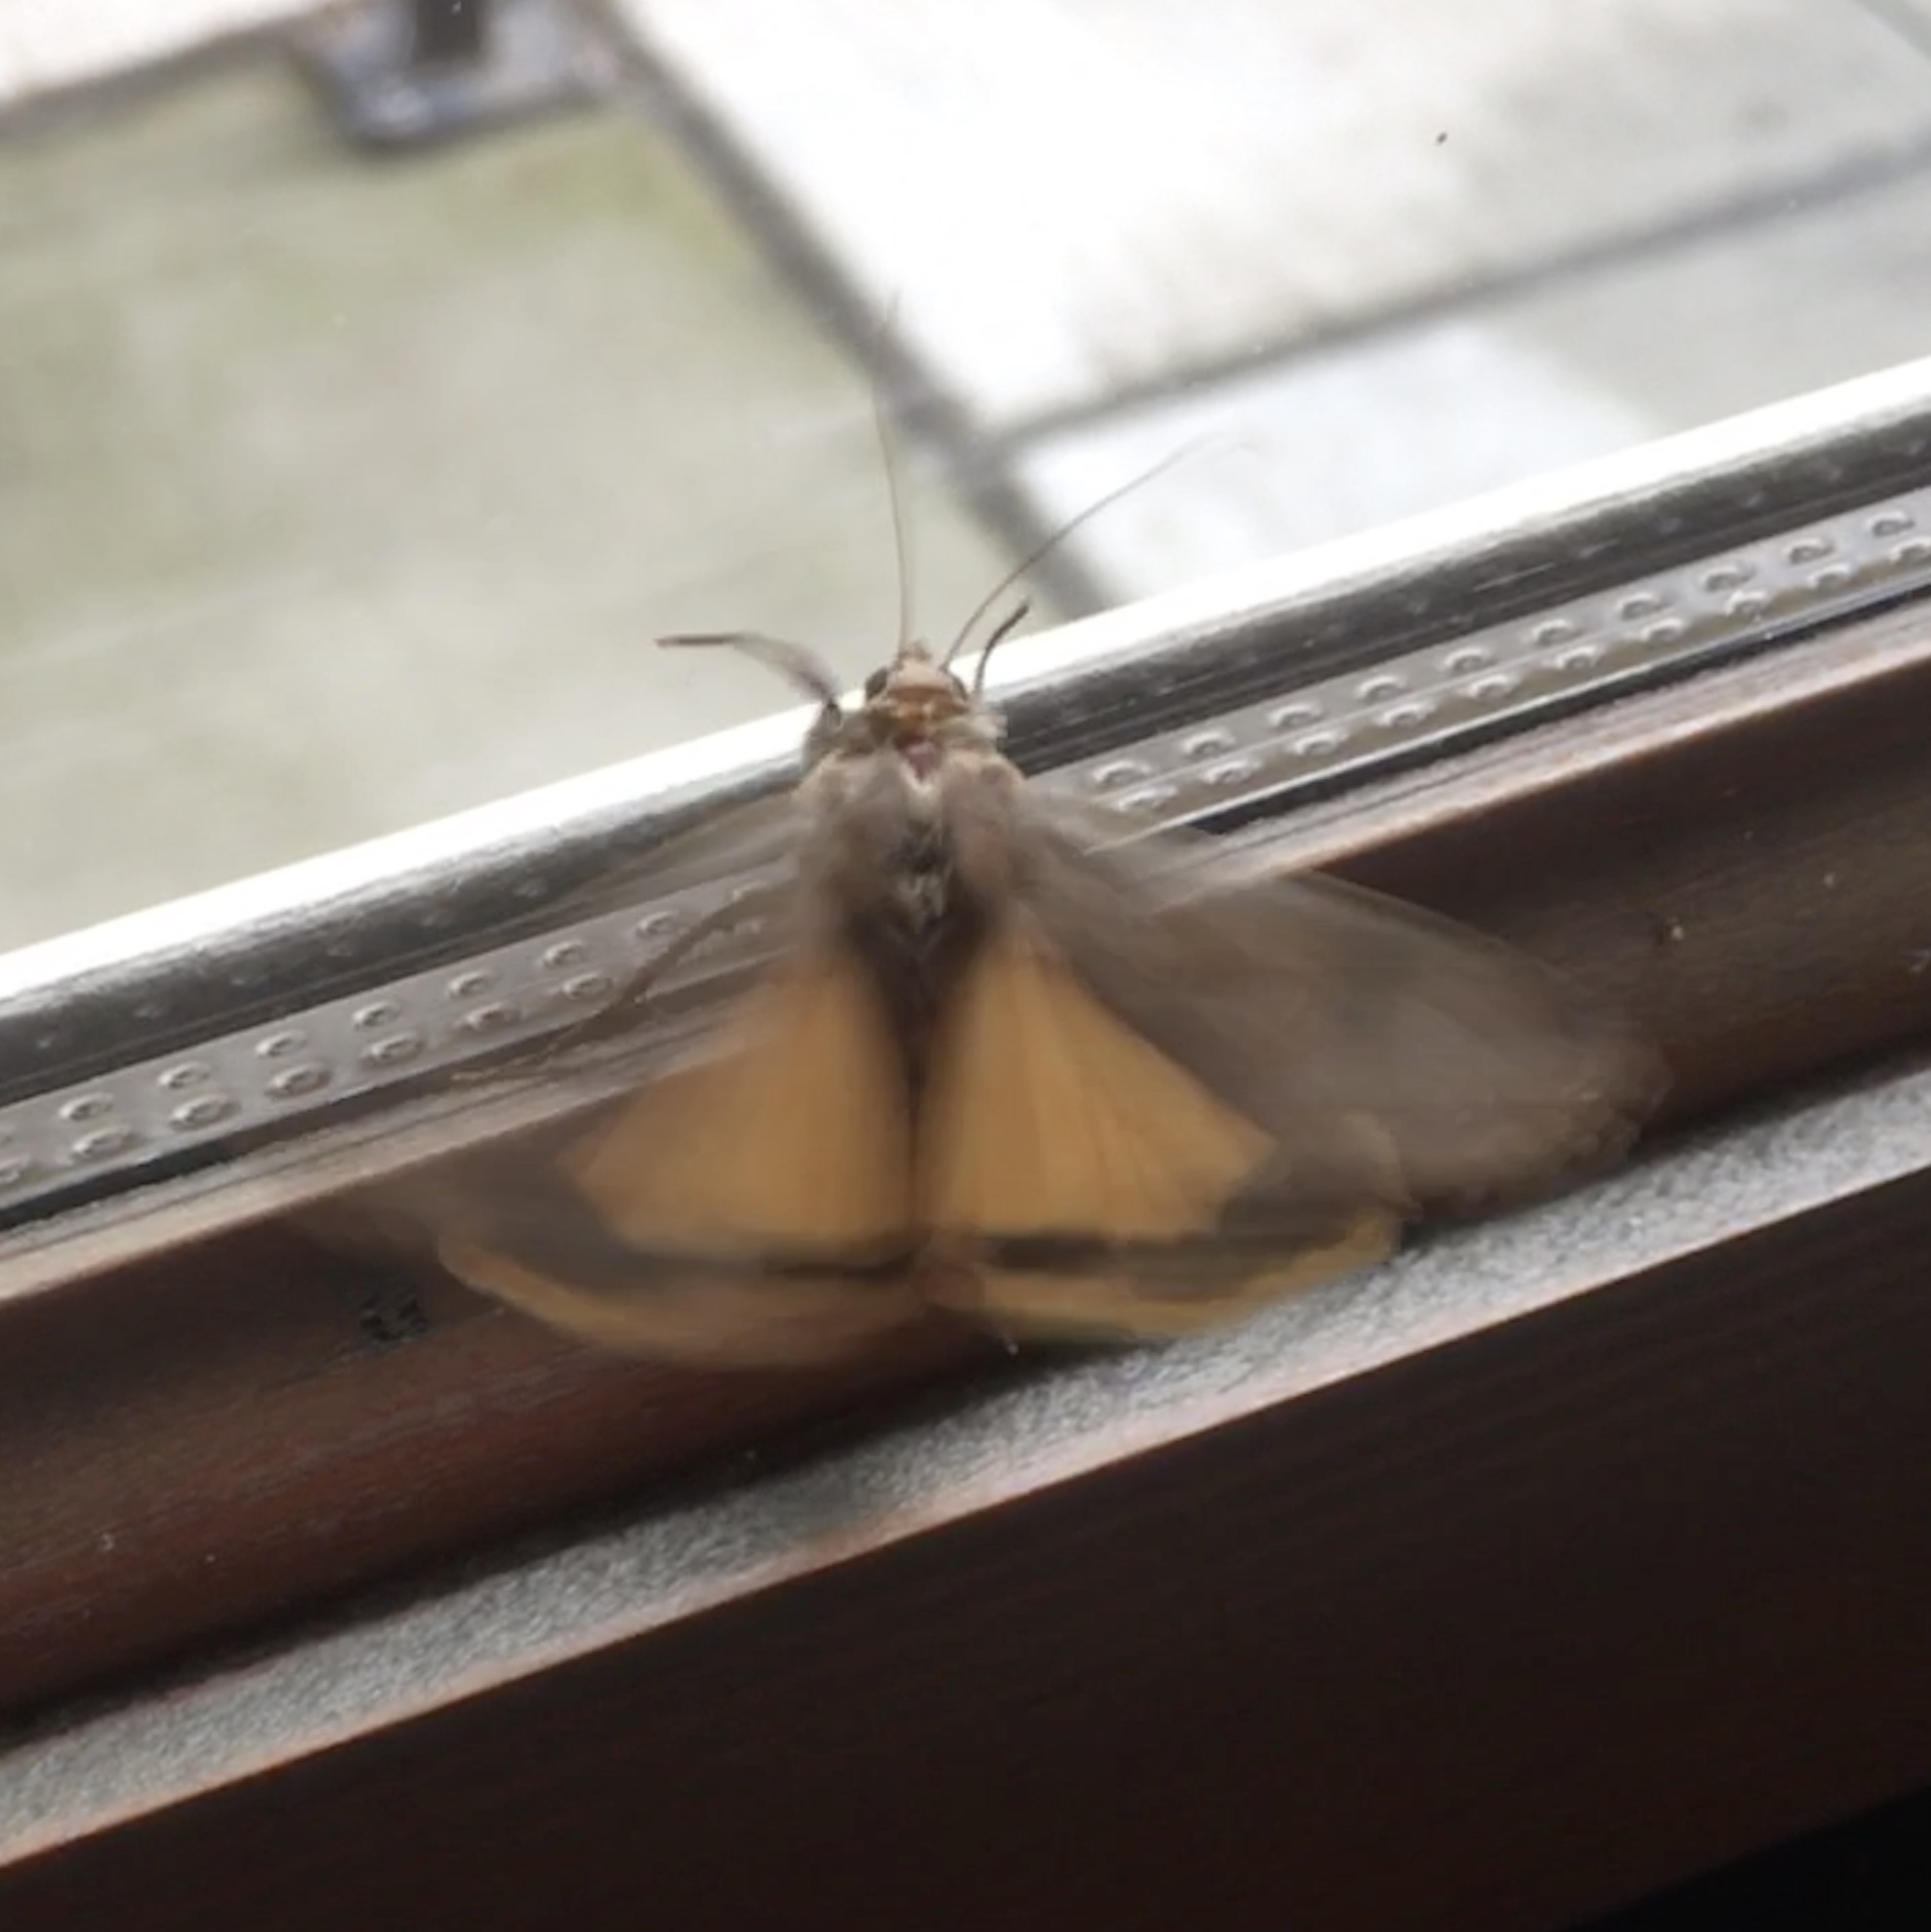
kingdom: Animalia
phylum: Arthropoda
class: Insecta
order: Lepidoptera
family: Noctuidae
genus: Noctua
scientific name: Noctua pronuba
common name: Large yellow underwing
